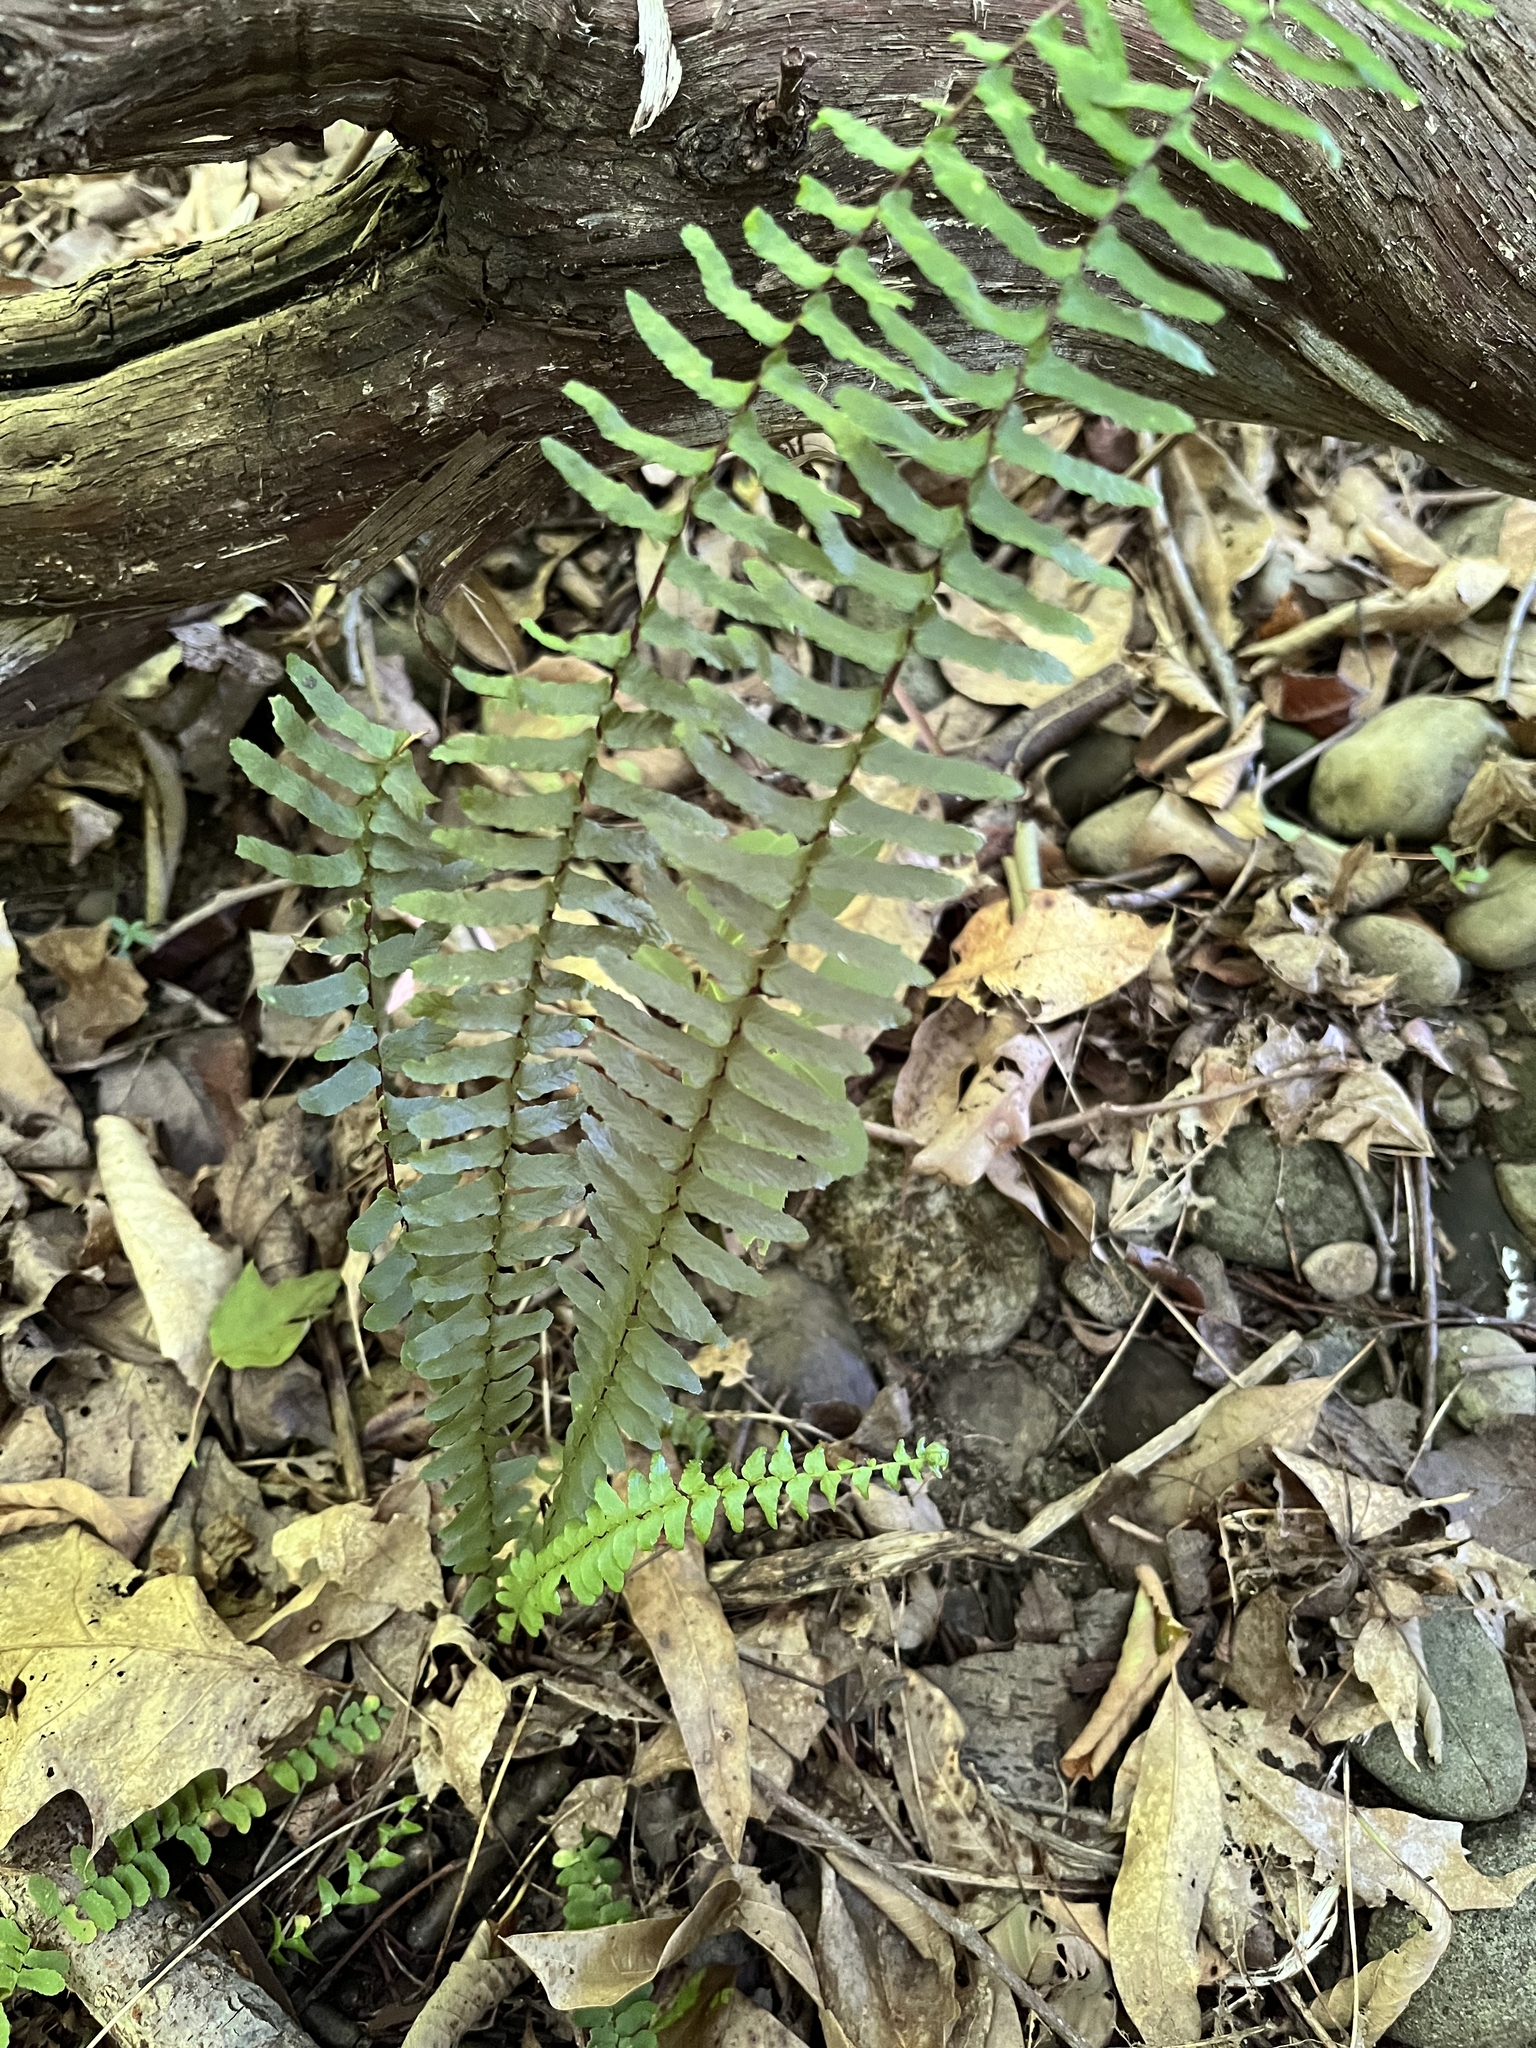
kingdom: Plantae
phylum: Tracheophyta
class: Polypodiopsida
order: Polypodiales
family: Aspleniaceae
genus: Asplenium
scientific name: Asplenium platyneuron
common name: Ebony spleenwort
